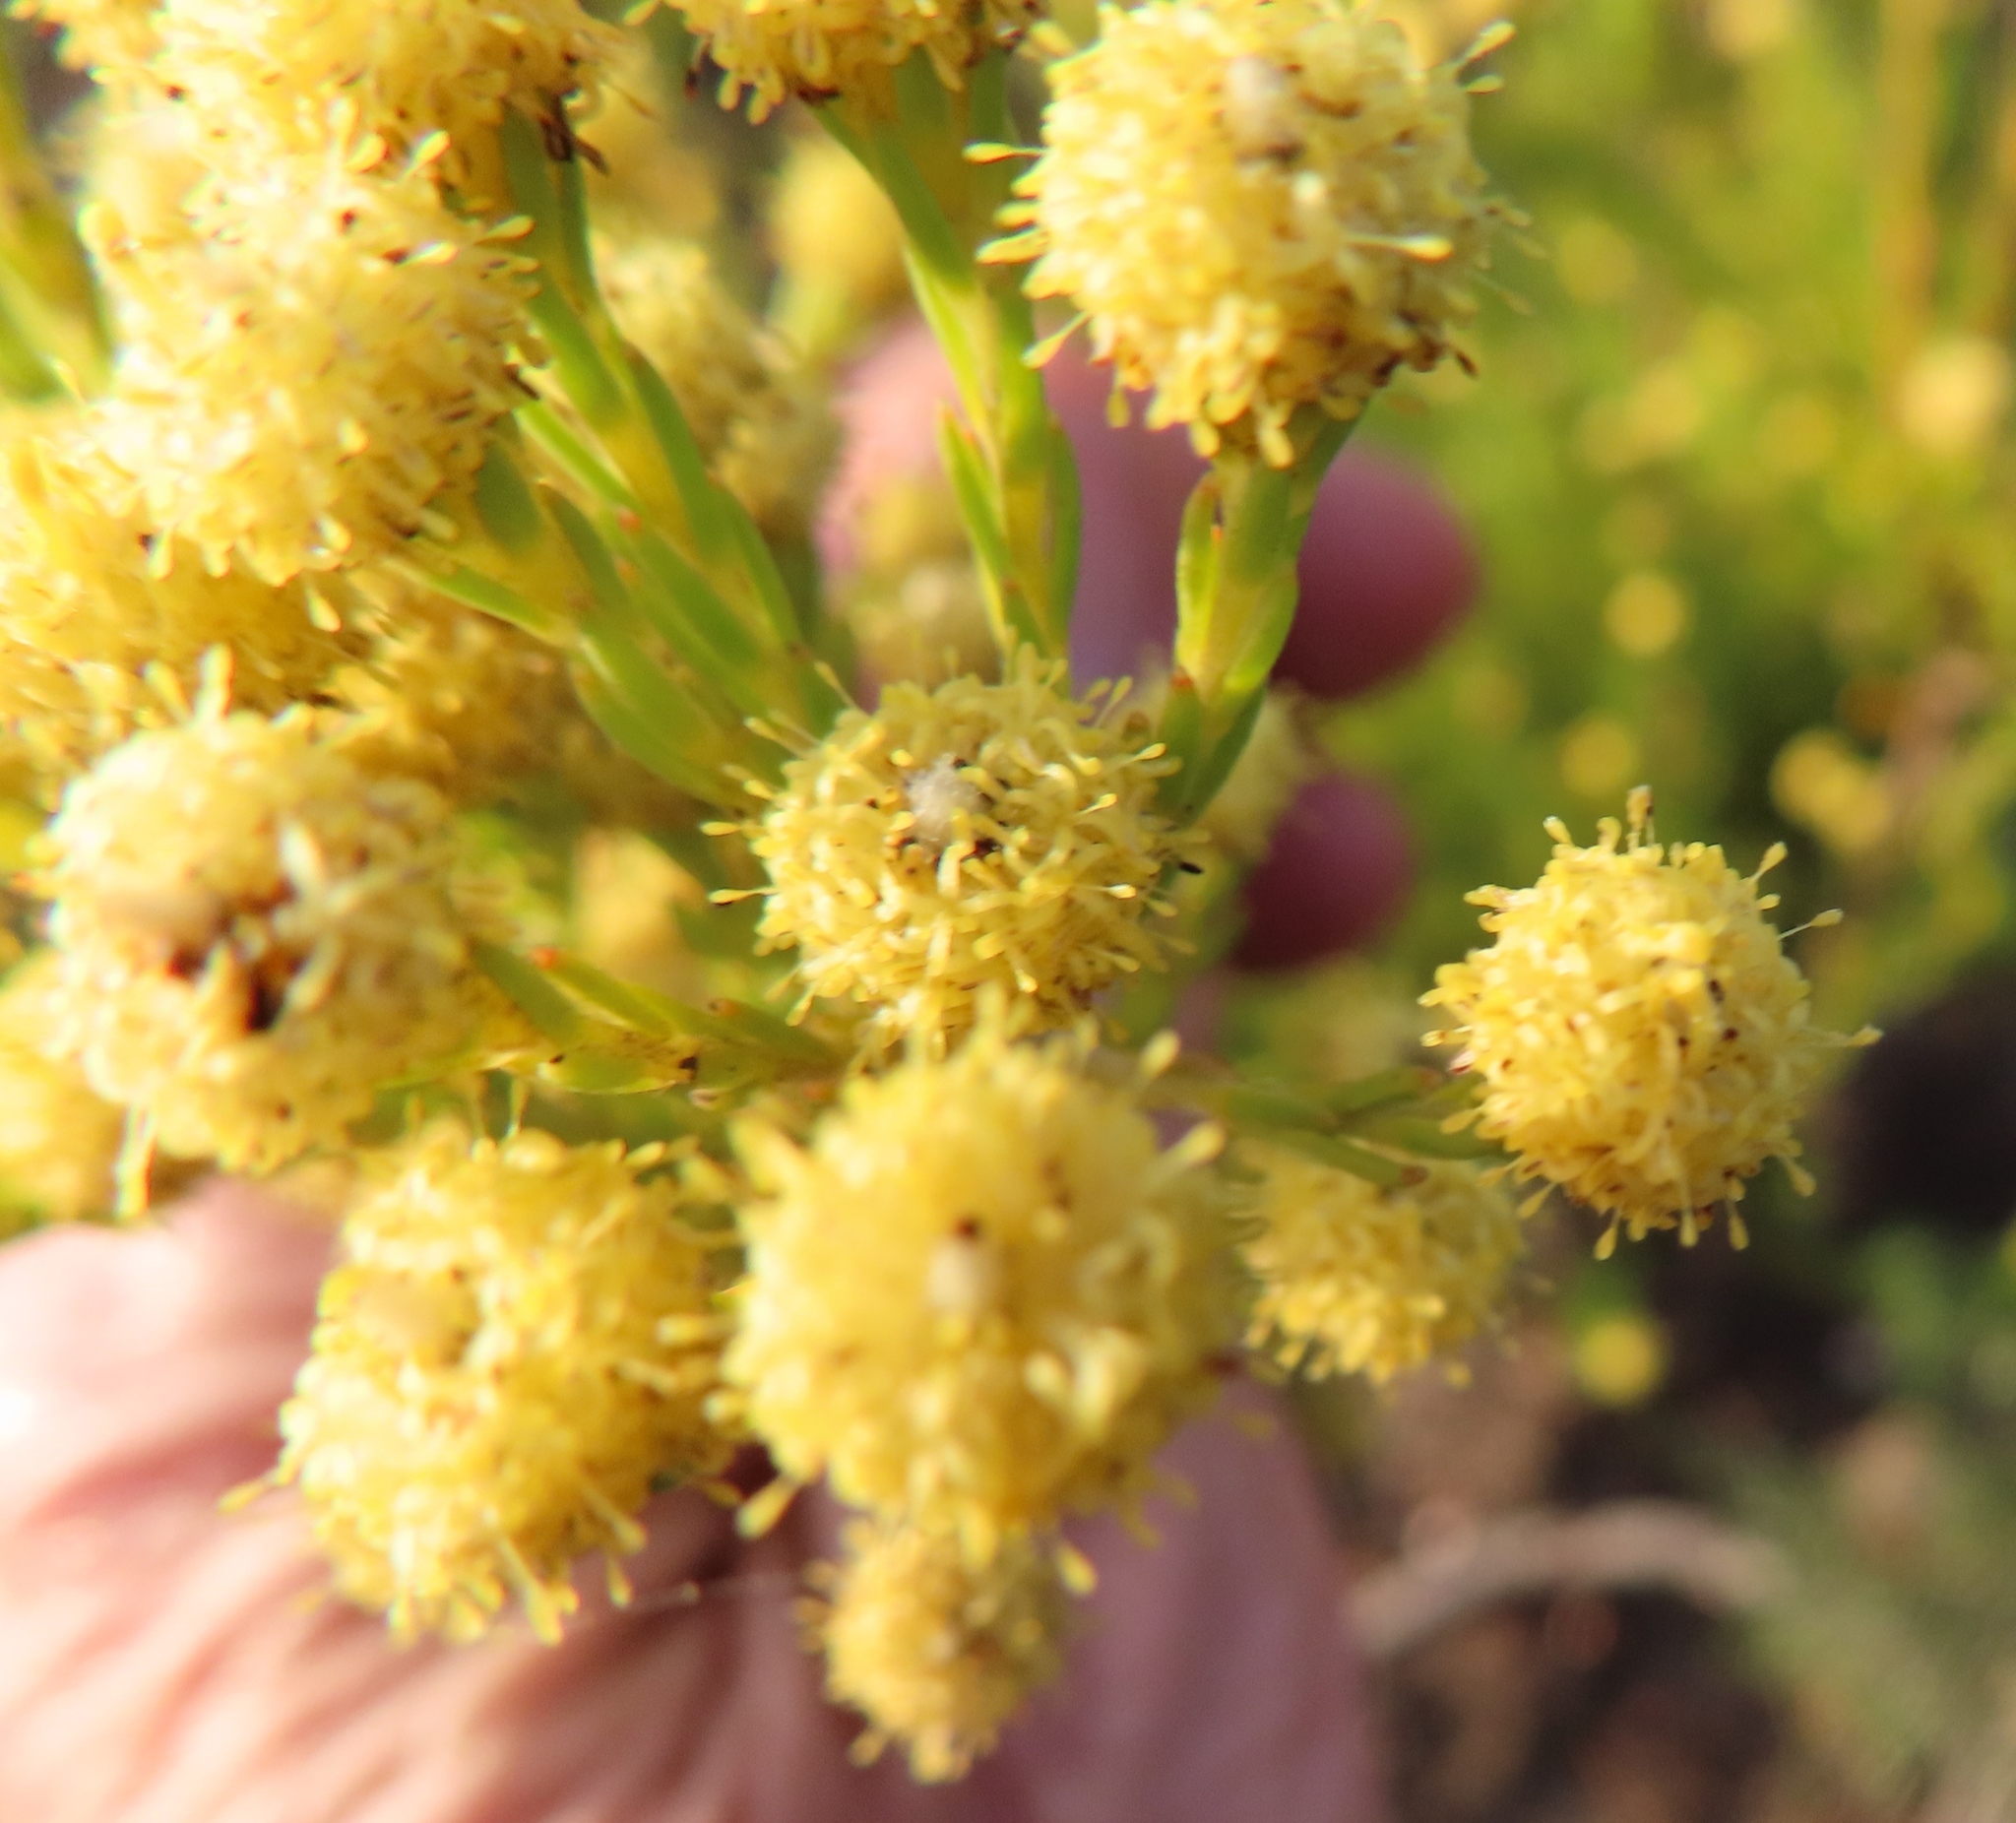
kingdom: Plantae
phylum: Tracheophyta
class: Magnoliopsida
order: Proteales
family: Proteaceae
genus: Leucadendron
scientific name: Leucadendron laxum
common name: Bredasdorp conebush
